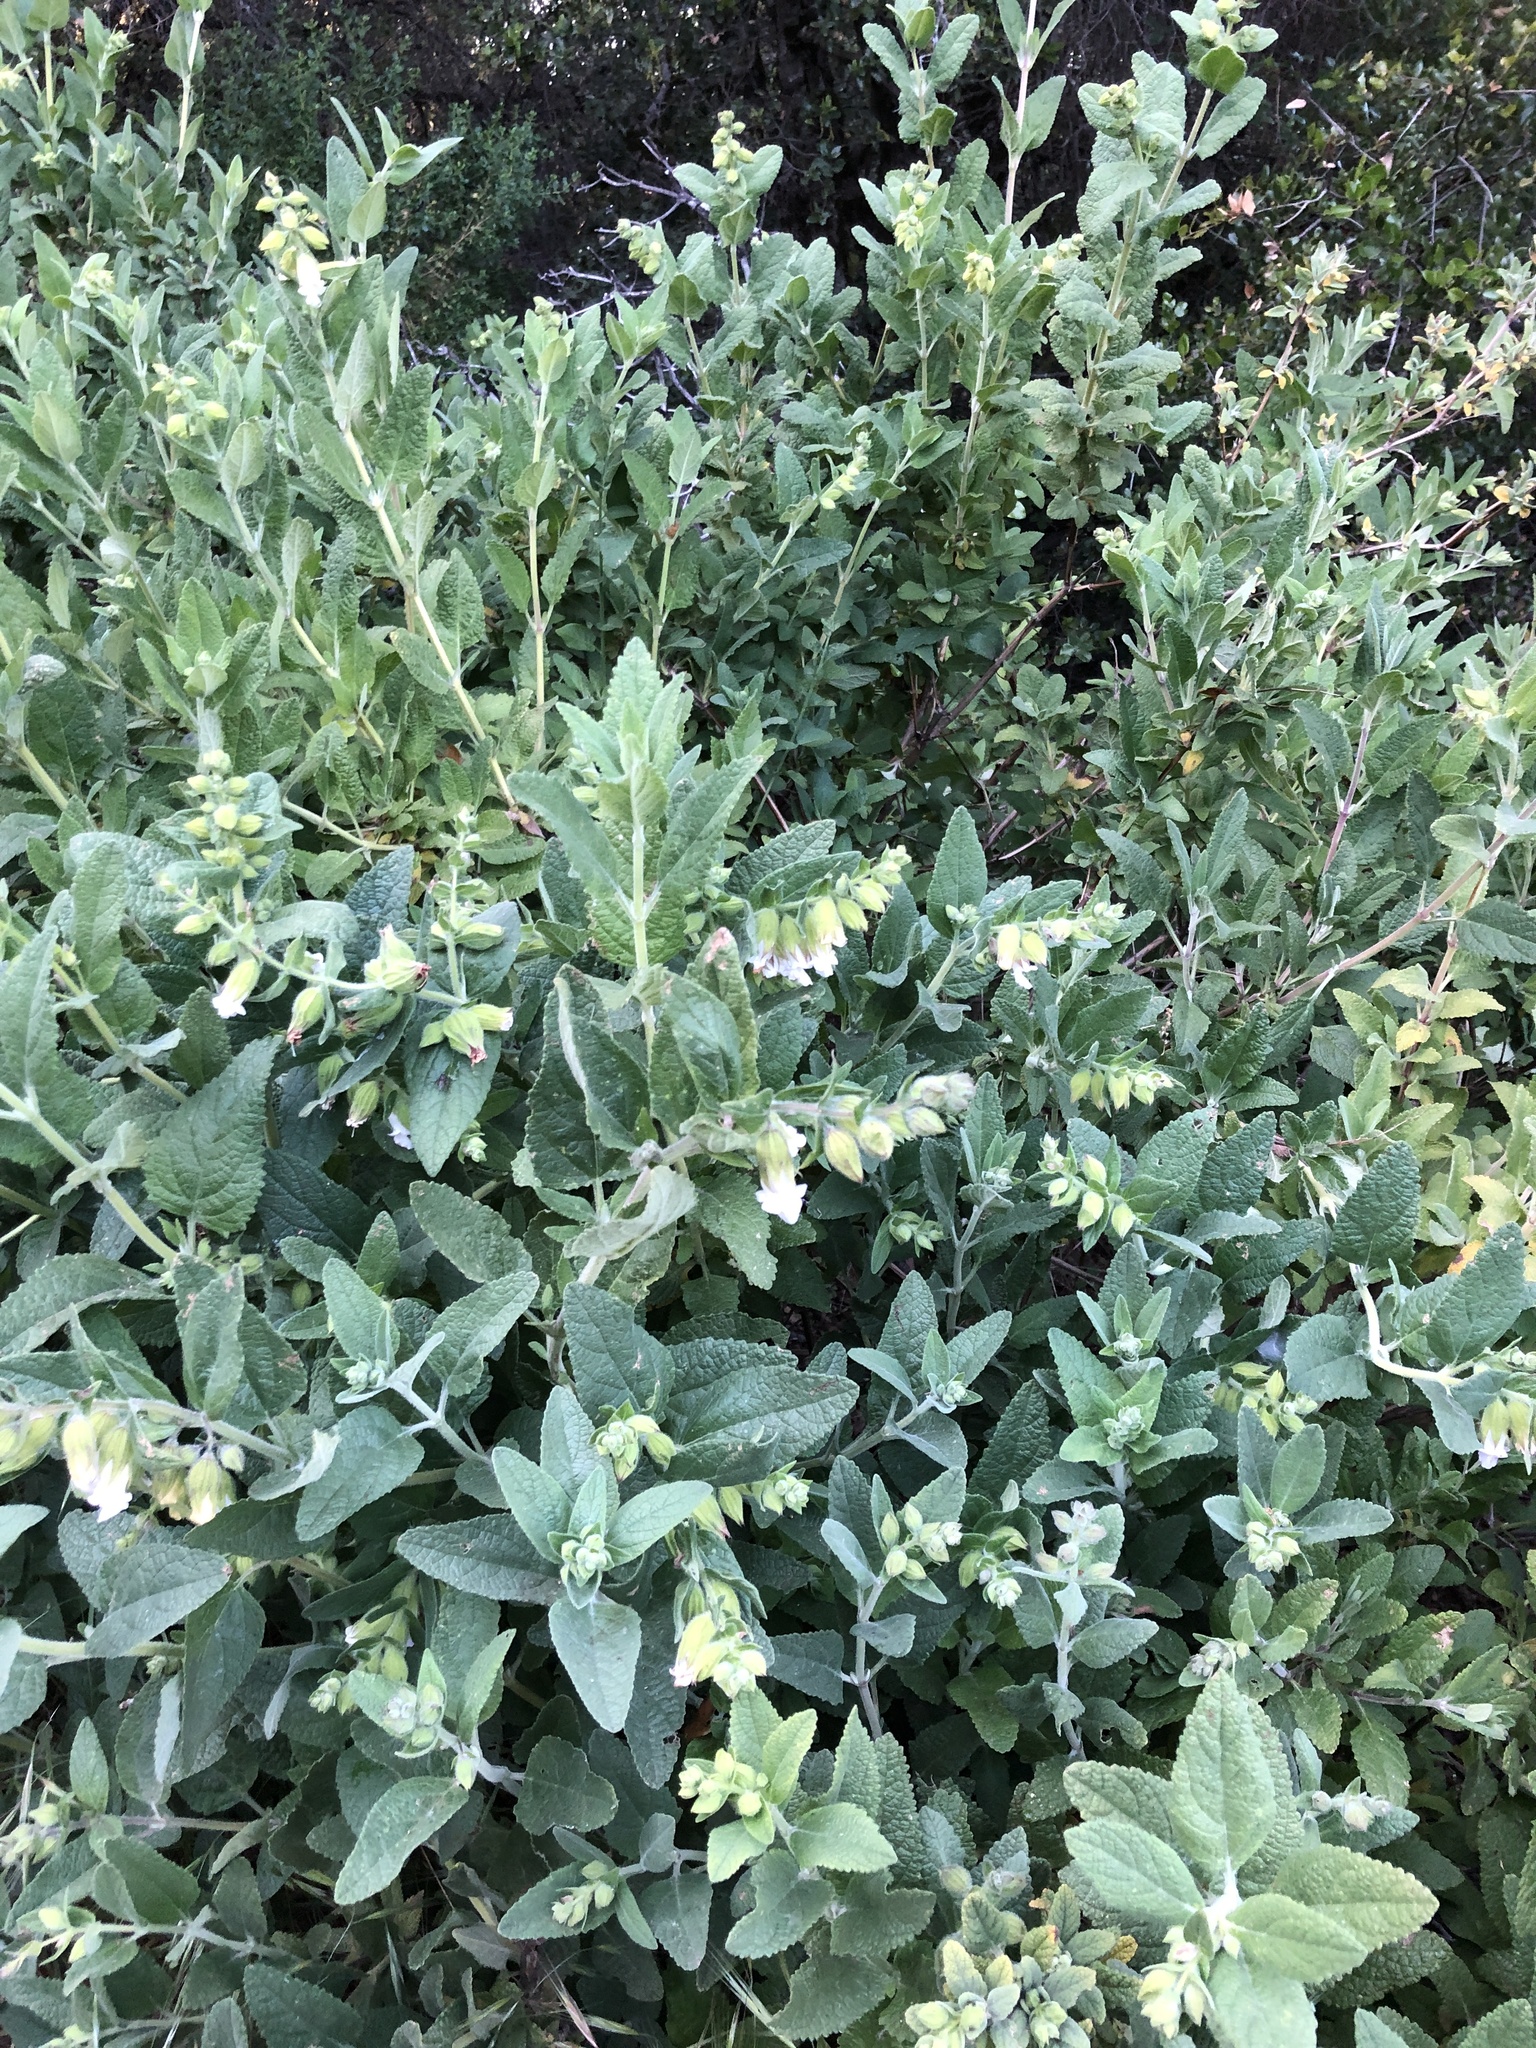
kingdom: Plantae
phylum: Tracheophyta
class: Magnoliopsida
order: Lamiales
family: Lamiaceae
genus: Lepechinia
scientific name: Lepechinia calycina
